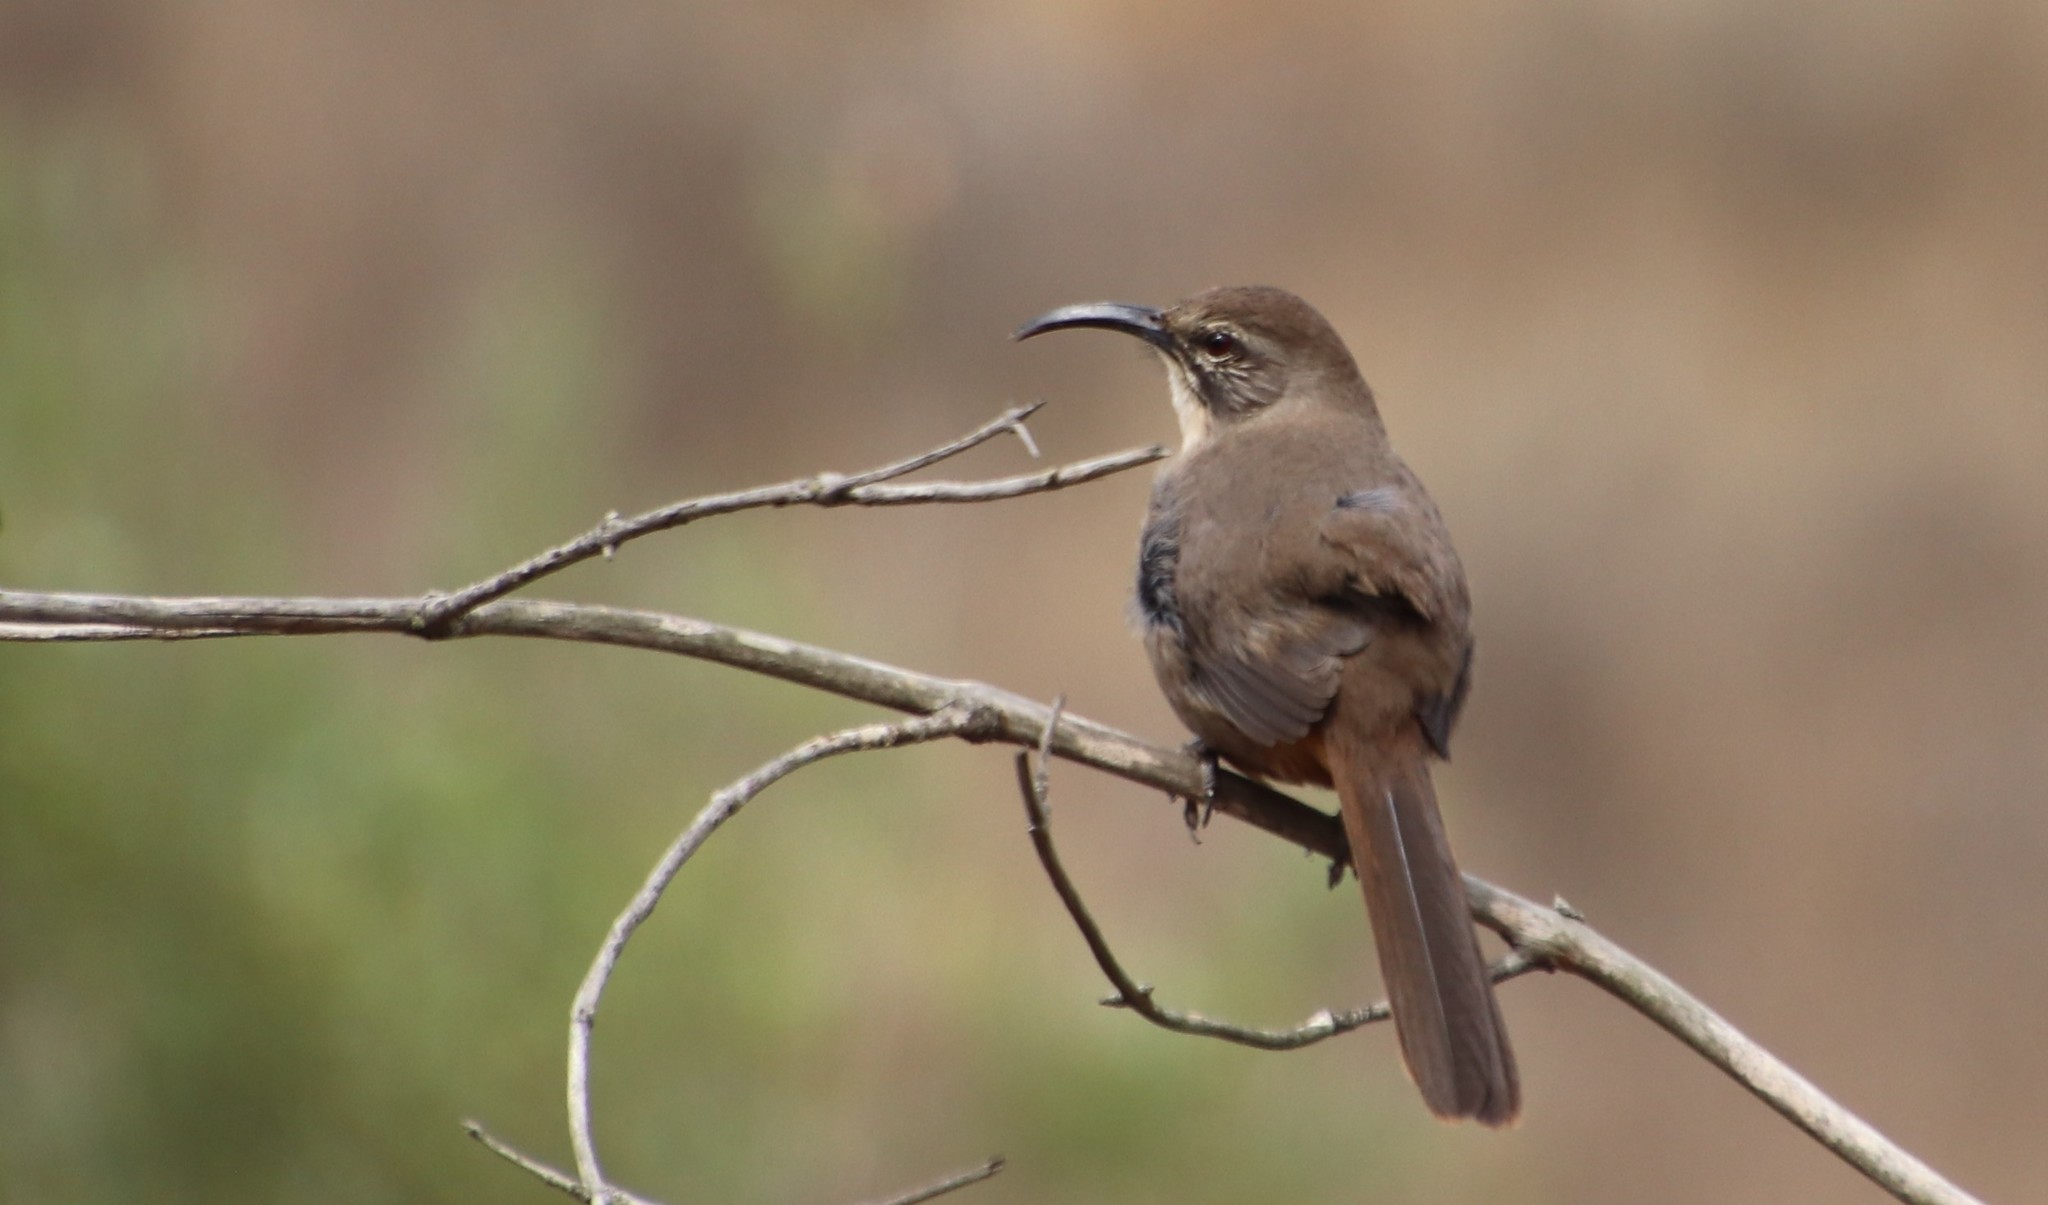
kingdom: Animalia
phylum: Chordata
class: Aves
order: Passeriformes
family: Mimidae
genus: Toxostoma
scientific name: Toxostoma redivivum
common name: California thrasher
